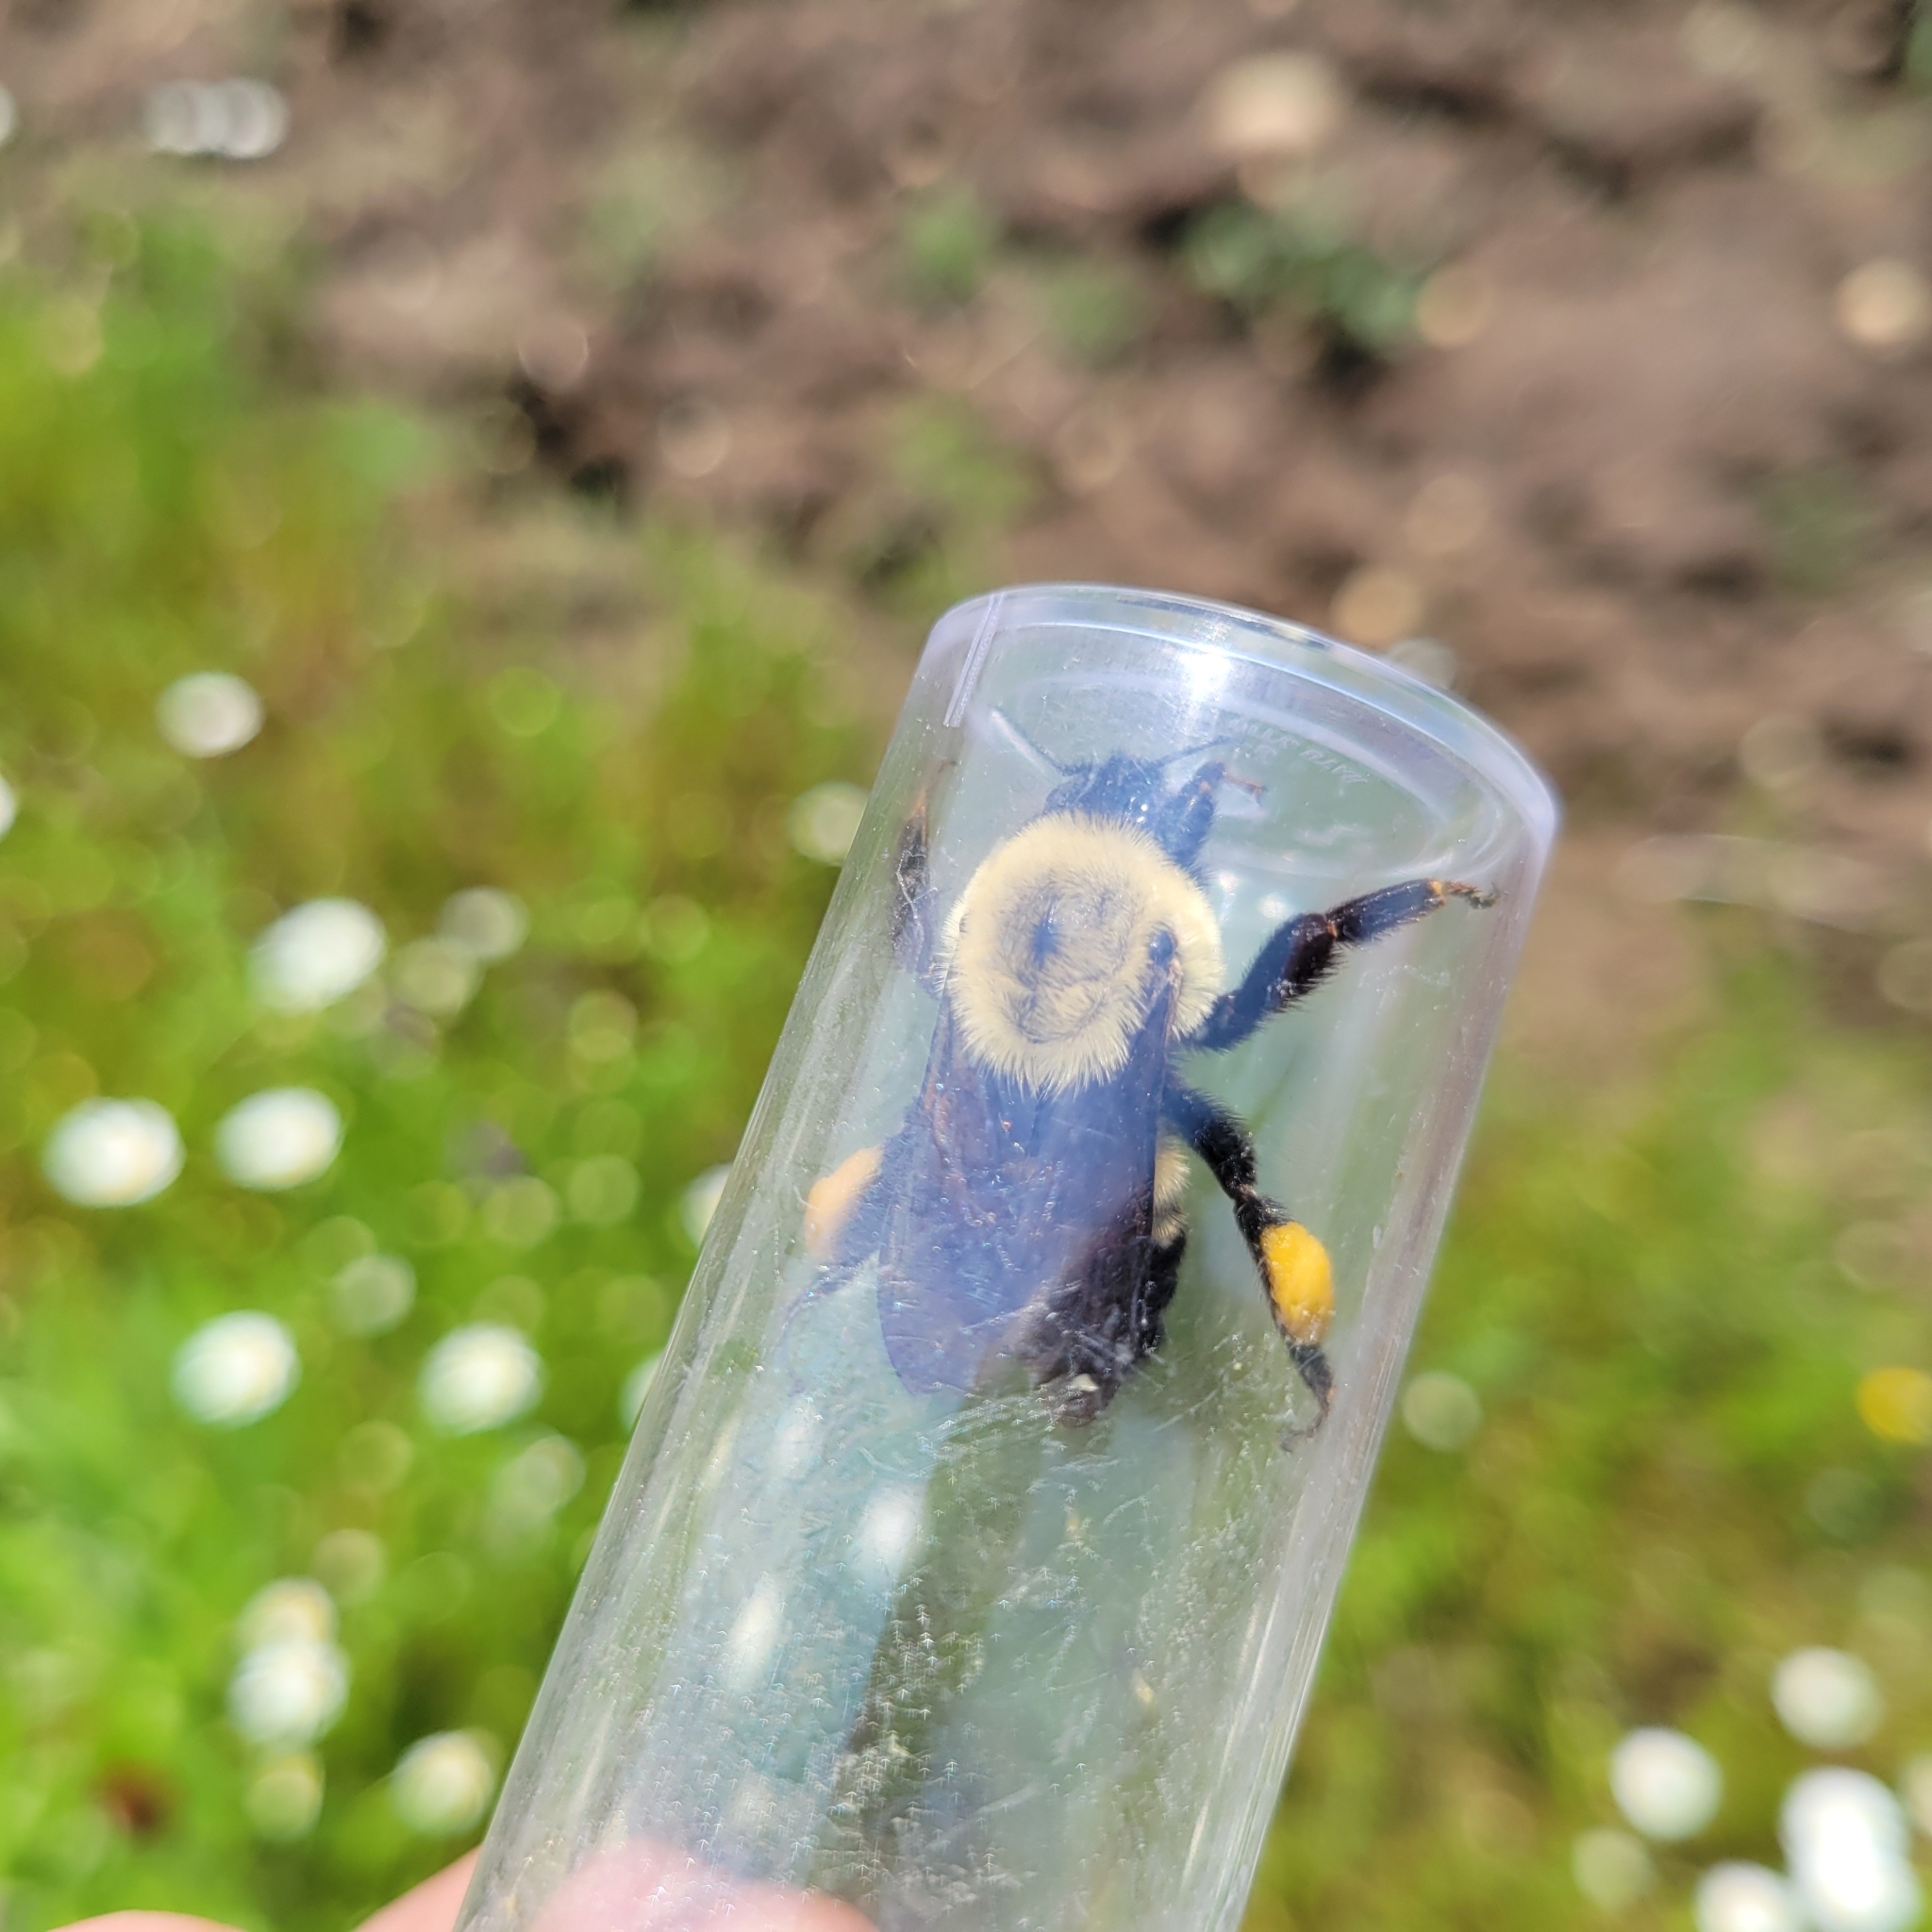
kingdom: Animalia
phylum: Arthropoda
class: Insecta
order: Hymenoptera
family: Apidae
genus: Bombus
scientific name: Bombus griseocollis
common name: Brown-belted bumble bee
